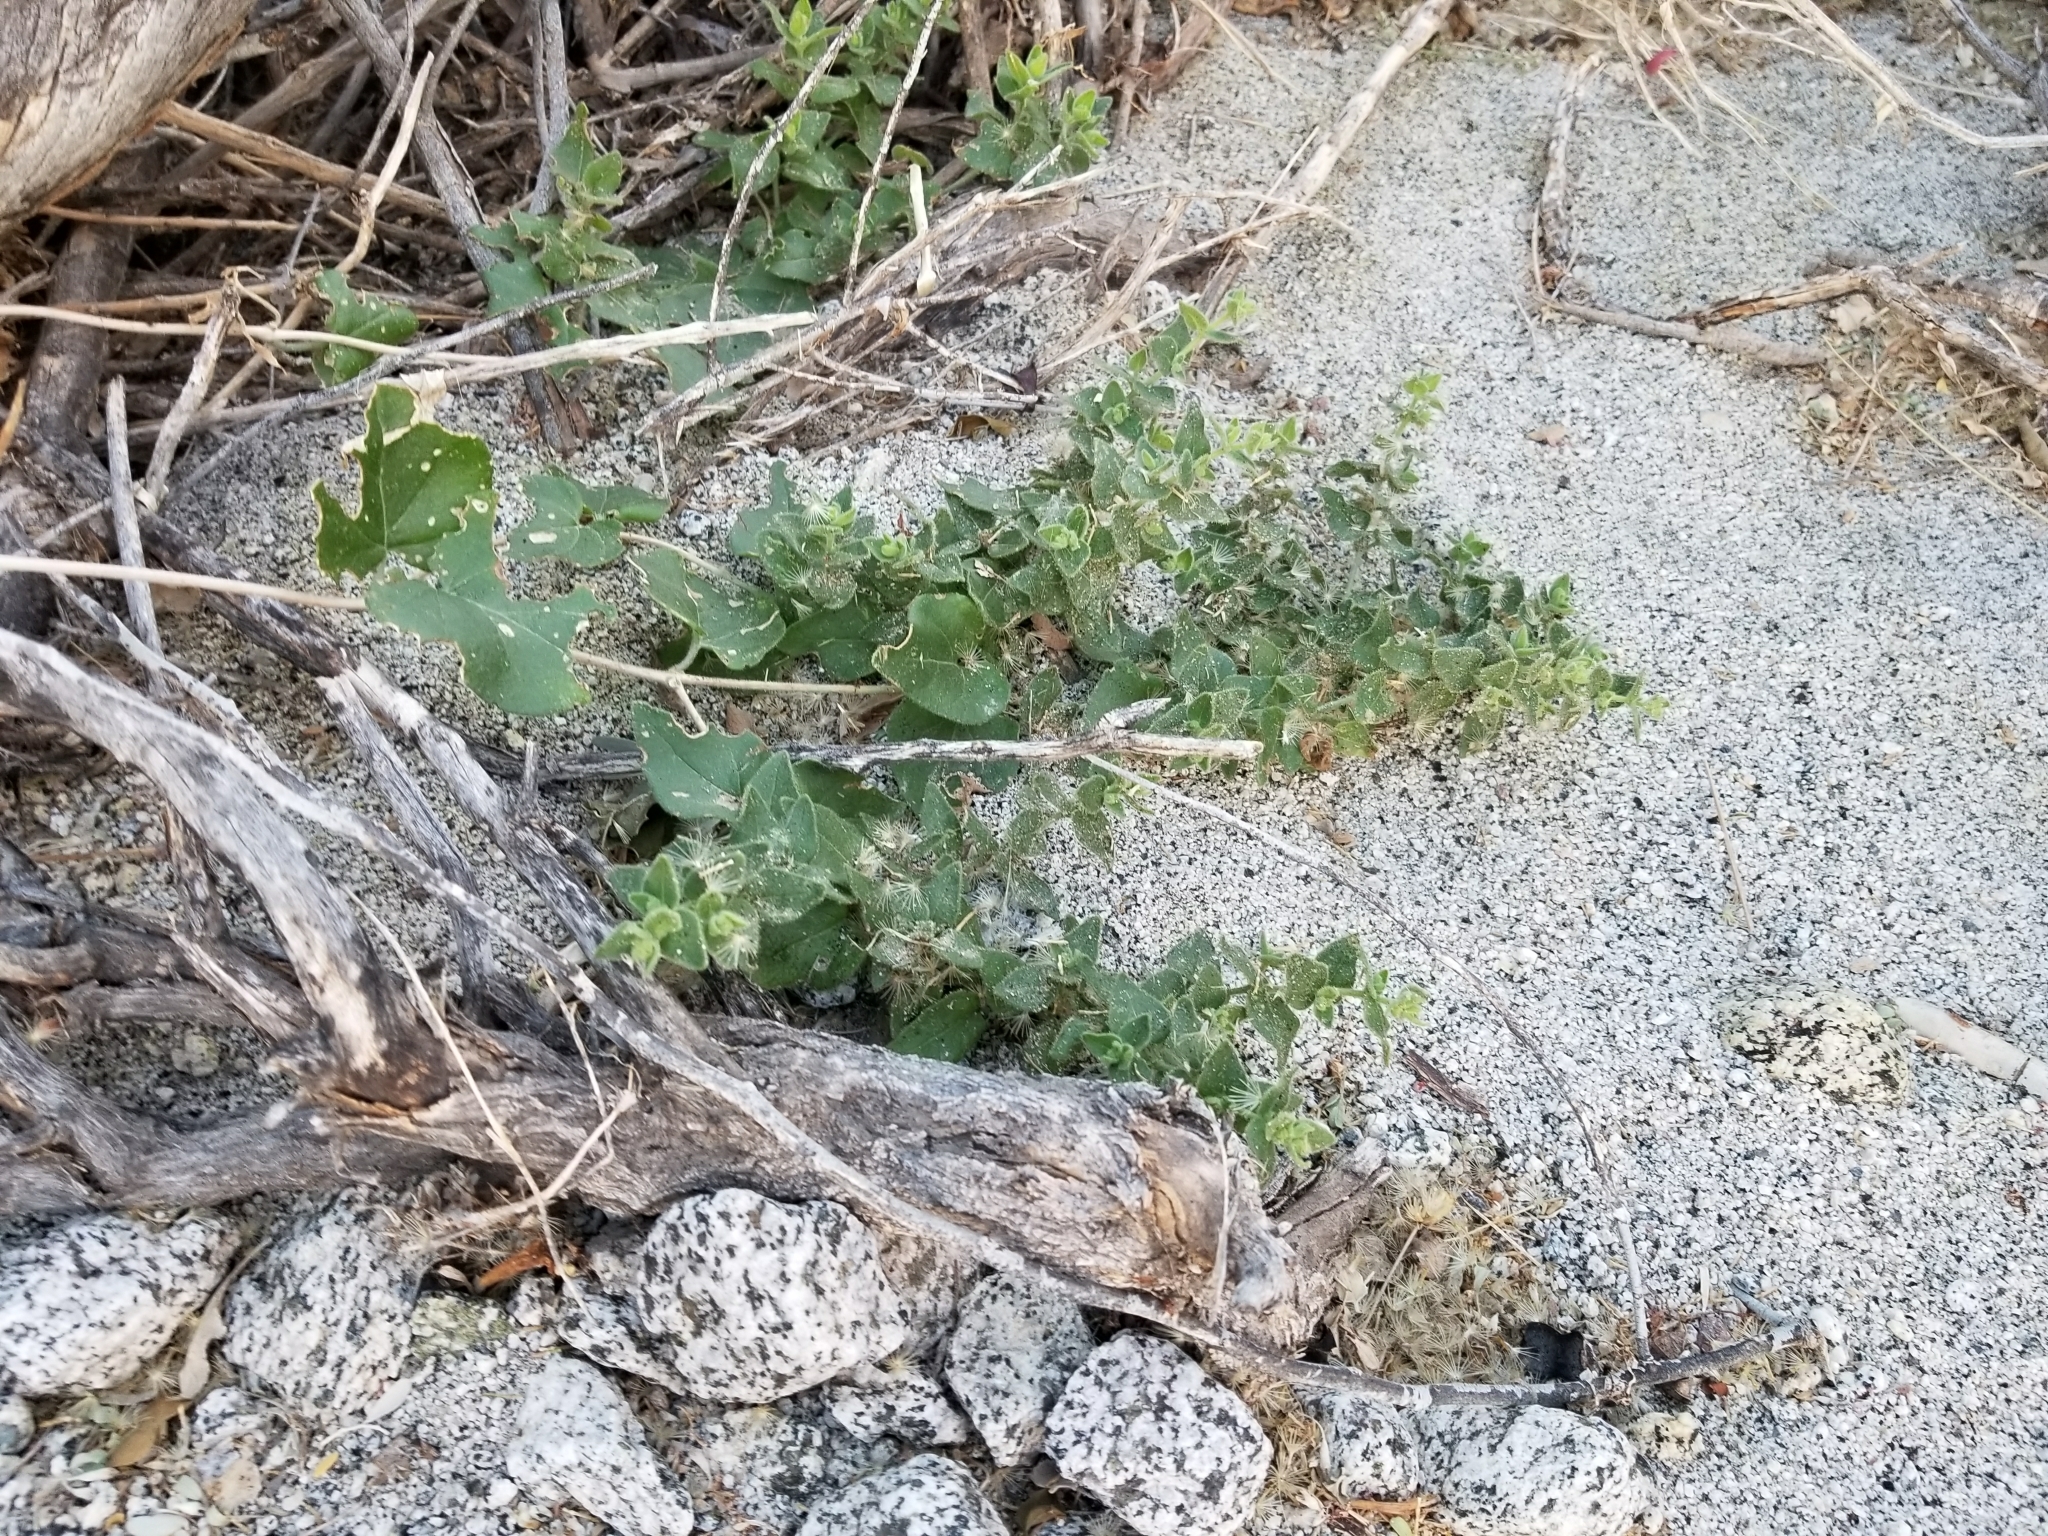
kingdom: Plantae
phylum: Tracheophyta
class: Magnoliopsida
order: Caryophyllales
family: Nyctaginaceae
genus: Mirabilis
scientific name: Mirabilis laevis
